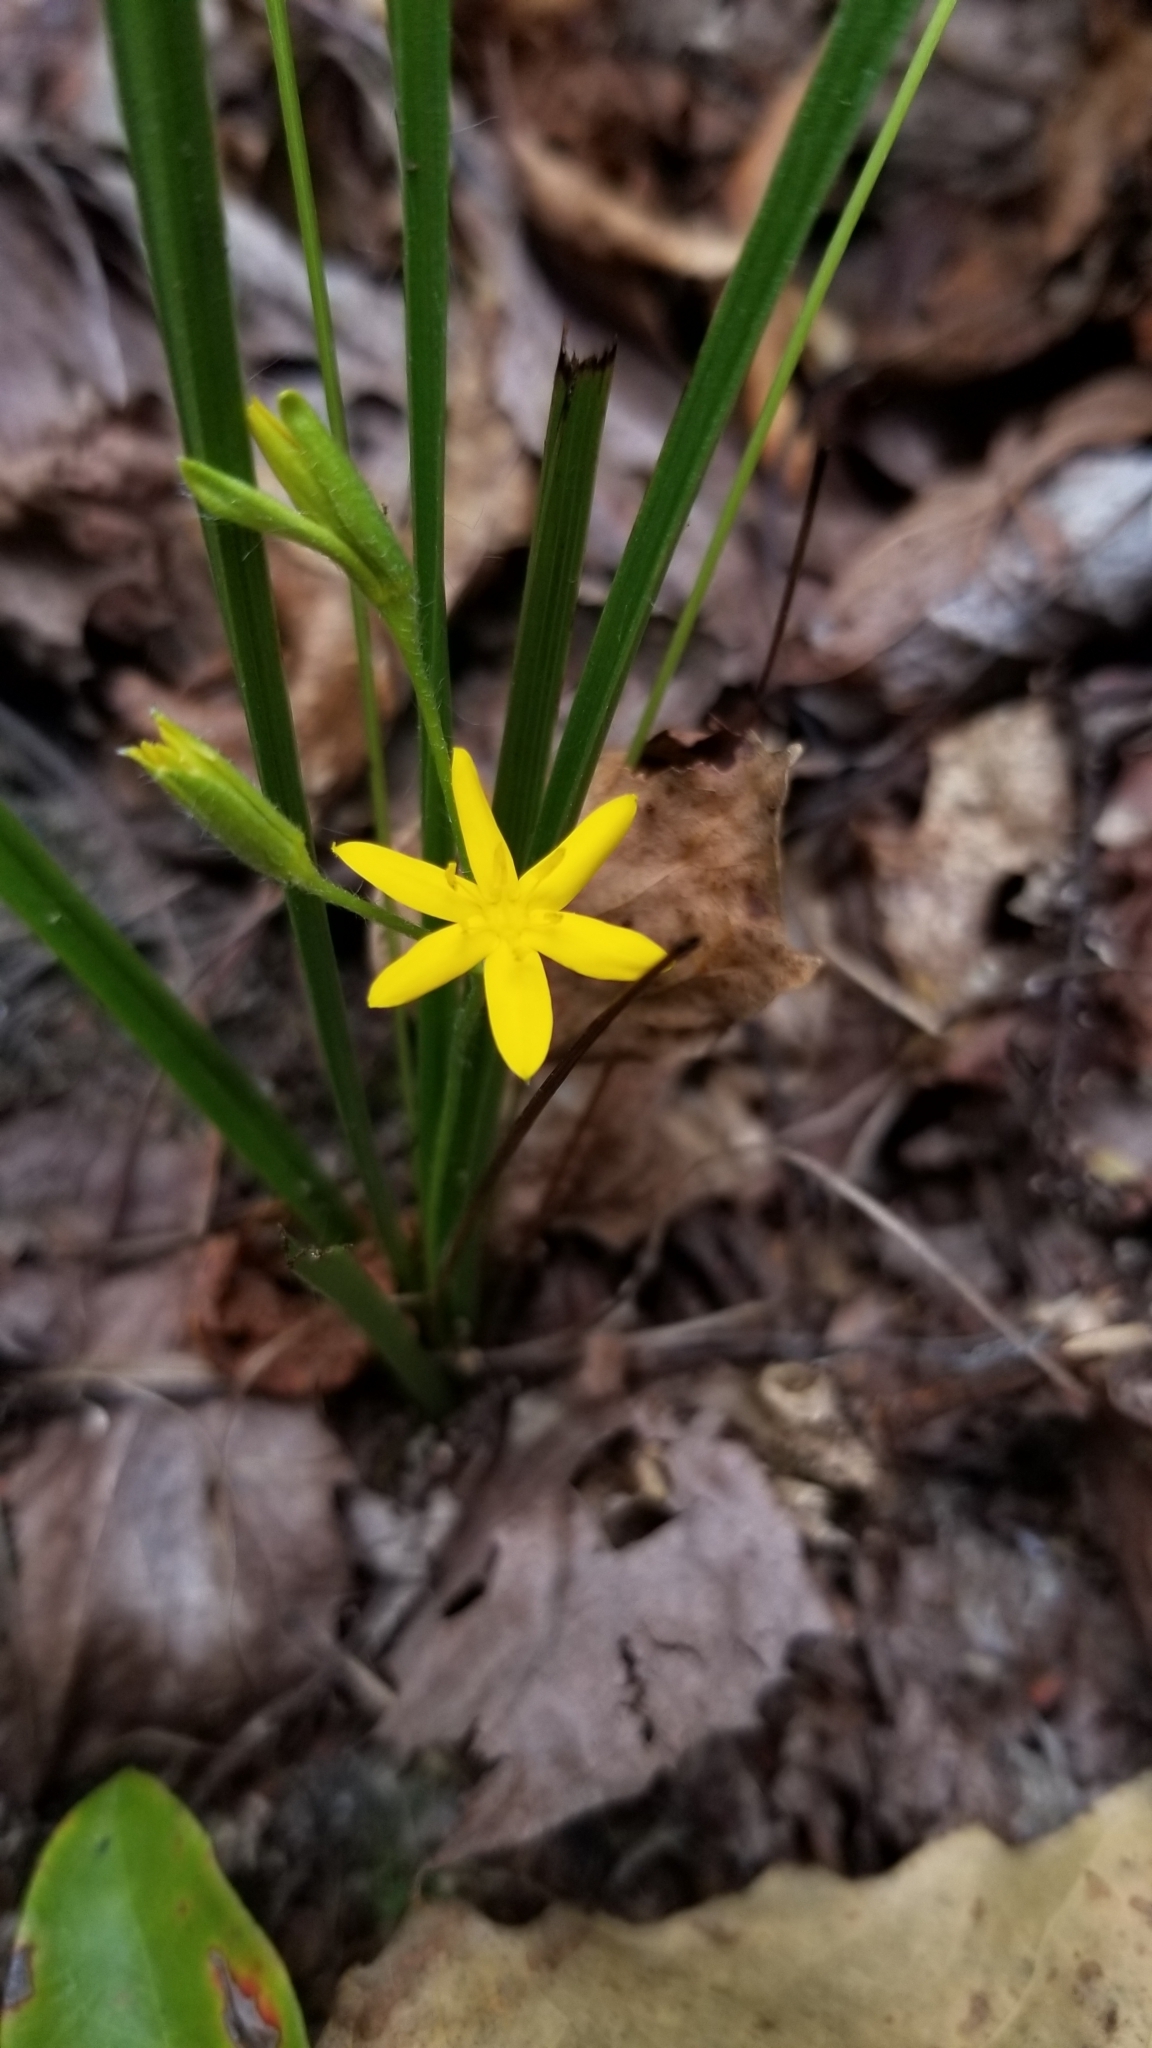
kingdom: Plantae
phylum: Tracheophyta
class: Liliopsida
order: Asparagales
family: Hypoxidaceae
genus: Hypoxis
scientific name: Hypoxis hirsuta
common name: Common goldstar
